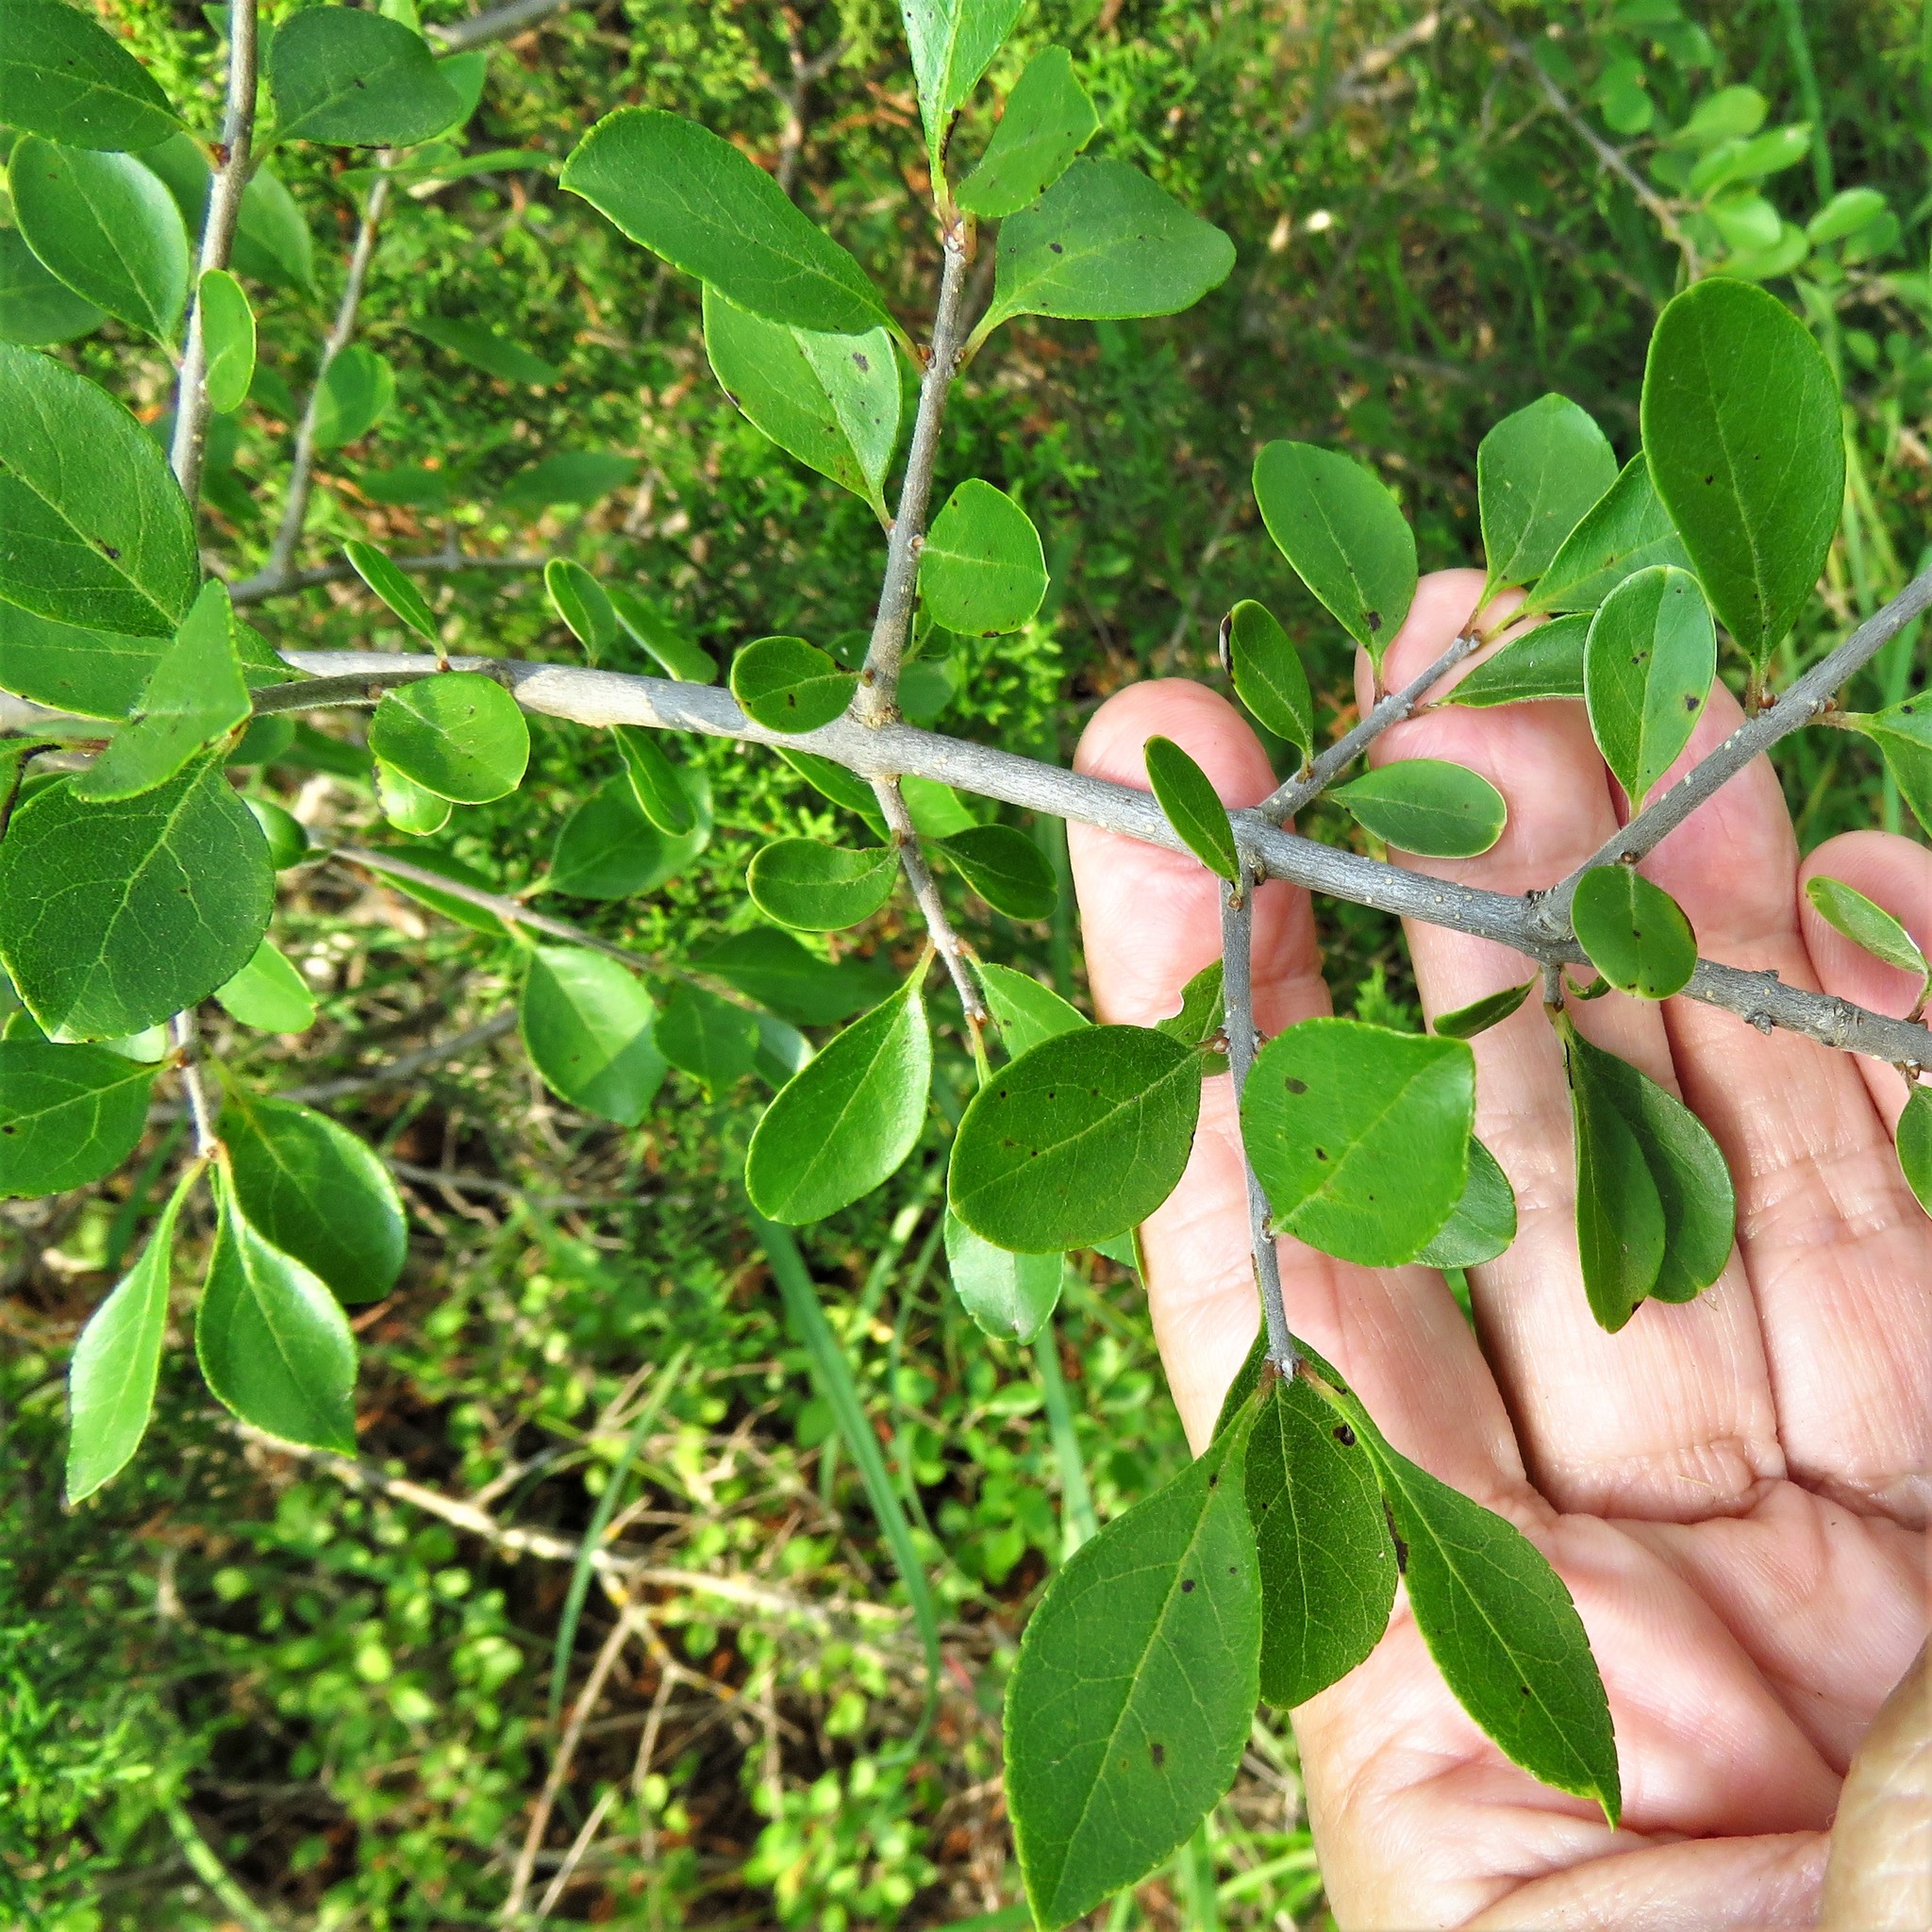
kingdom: Plantae
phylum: Tracheophyta
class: Magnoliopsida
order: Lamiales
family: Oleaceae
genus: Forestiera
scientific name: Forestiera pubescens
